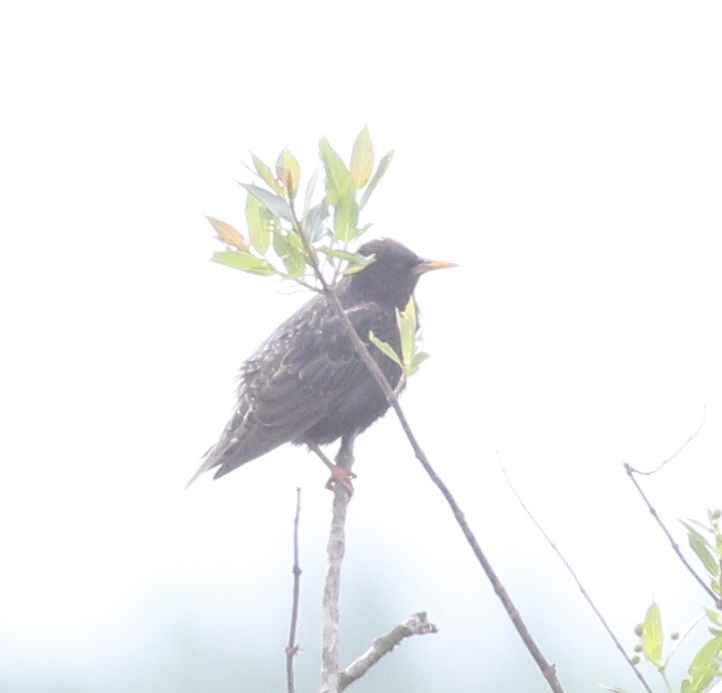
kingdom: Animalia
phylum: Chordata
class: Aves
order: Passeriformes
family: Sturnidae
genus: Sturnus
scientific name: Sturnus vulgaris
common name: Common starling
